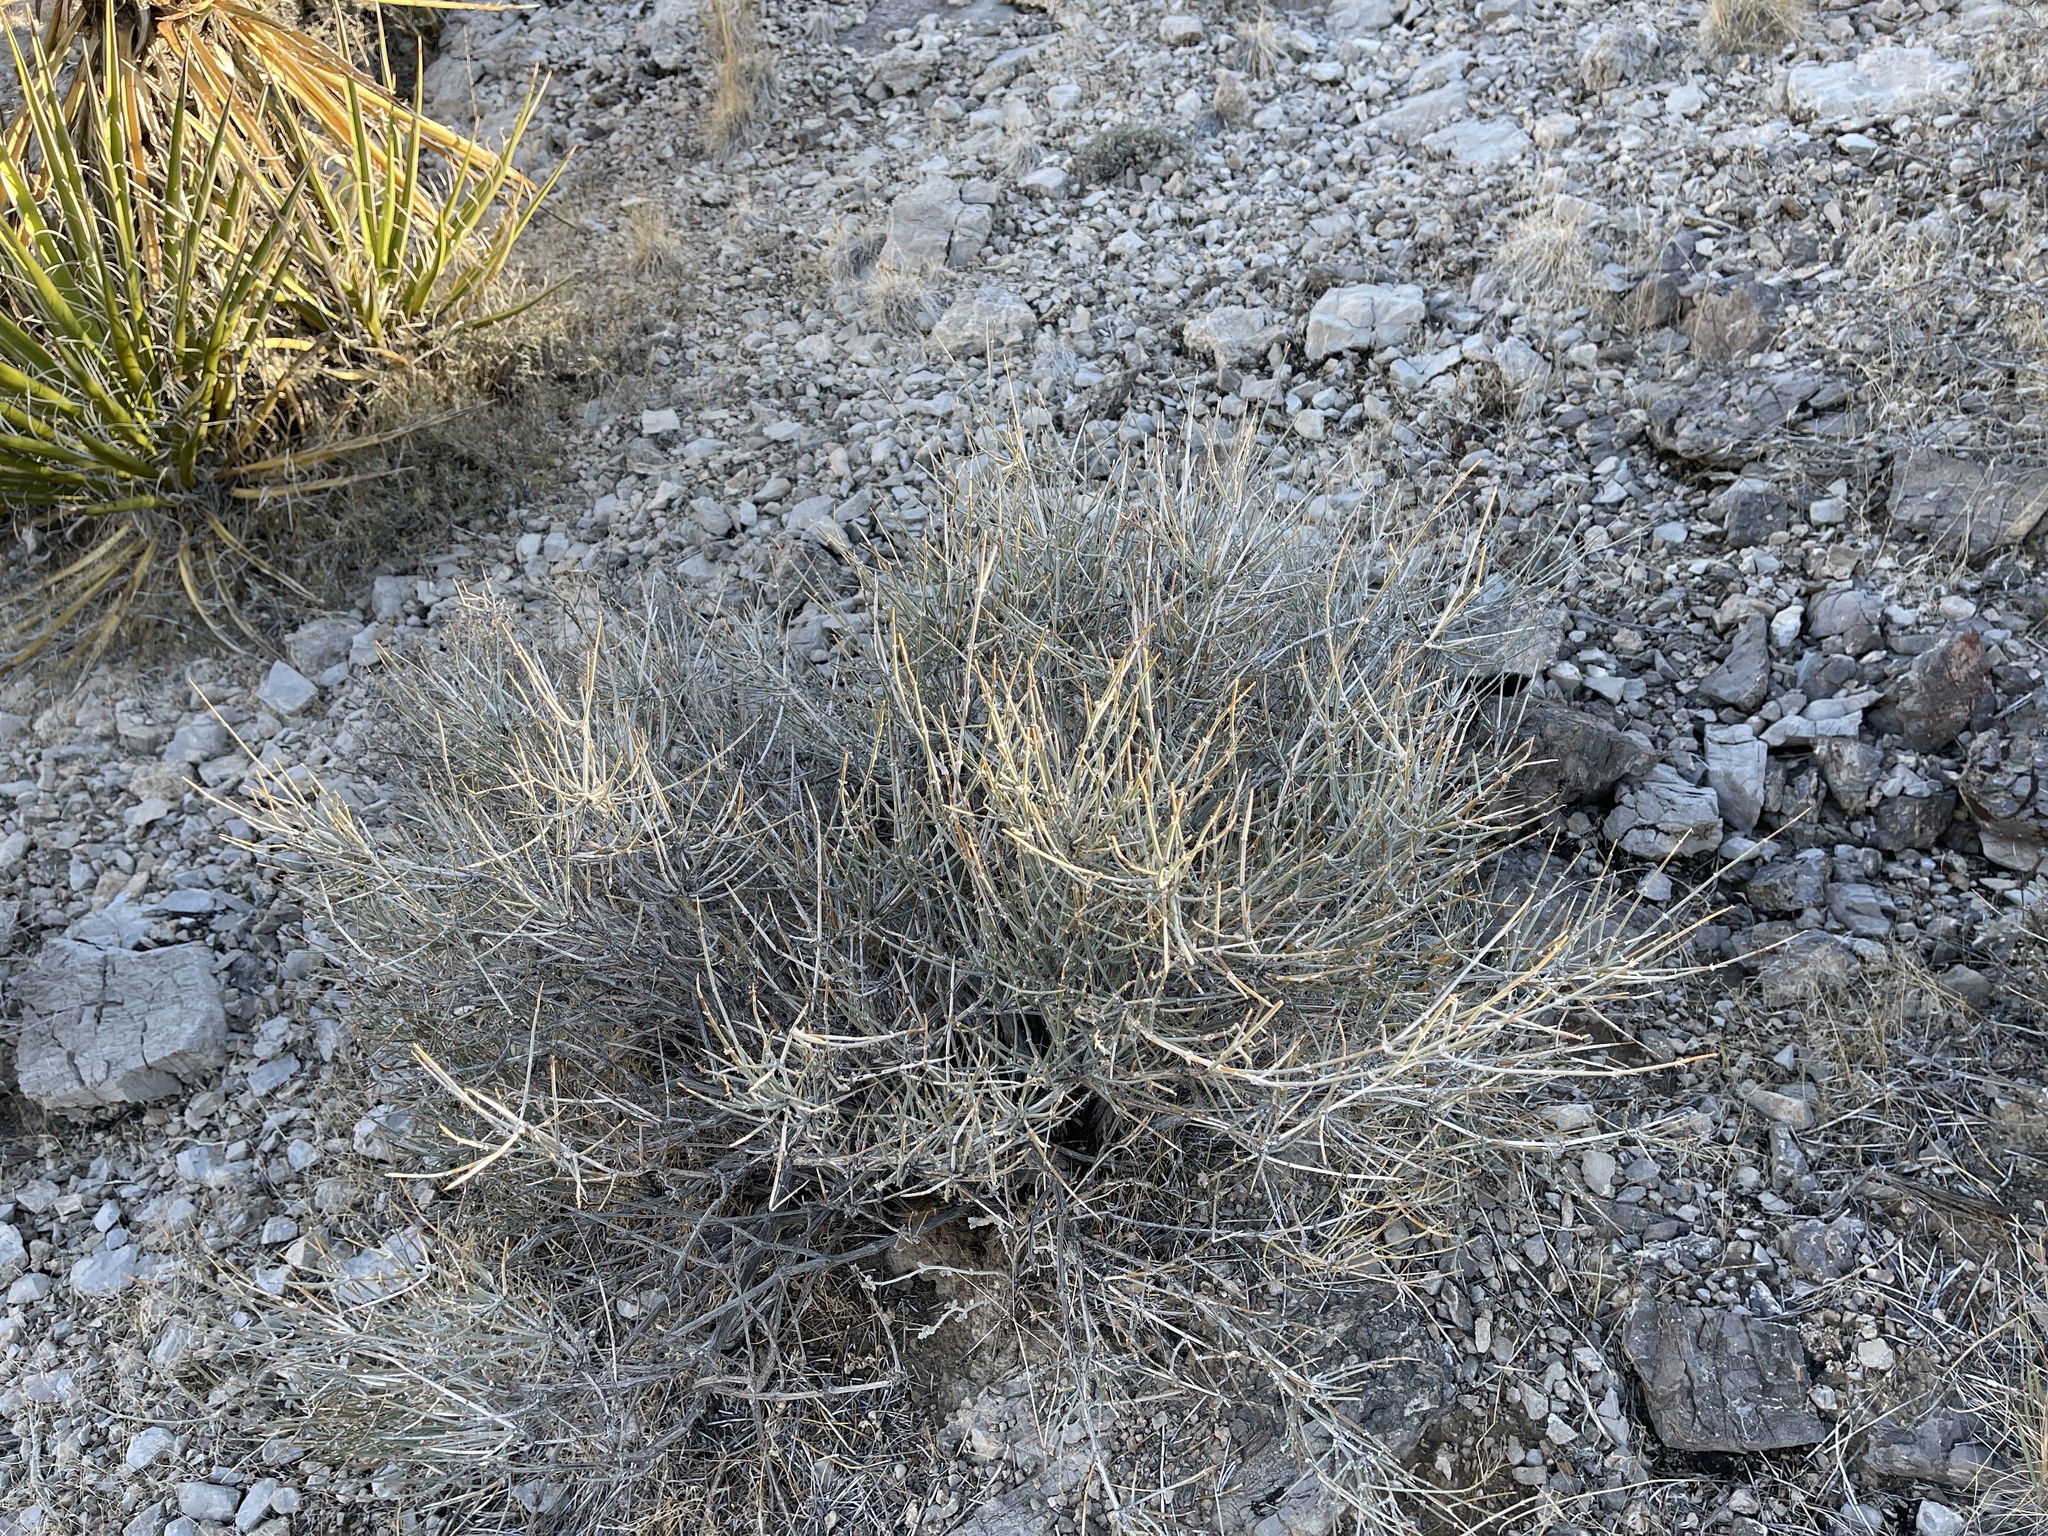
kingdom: Plantae
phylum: Tracheophyta
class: Gnetopsida
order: Ephedrales
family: Ephedraceae
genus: Ephedra
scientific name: Ephedra nevadensis
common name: Gray ephedra
